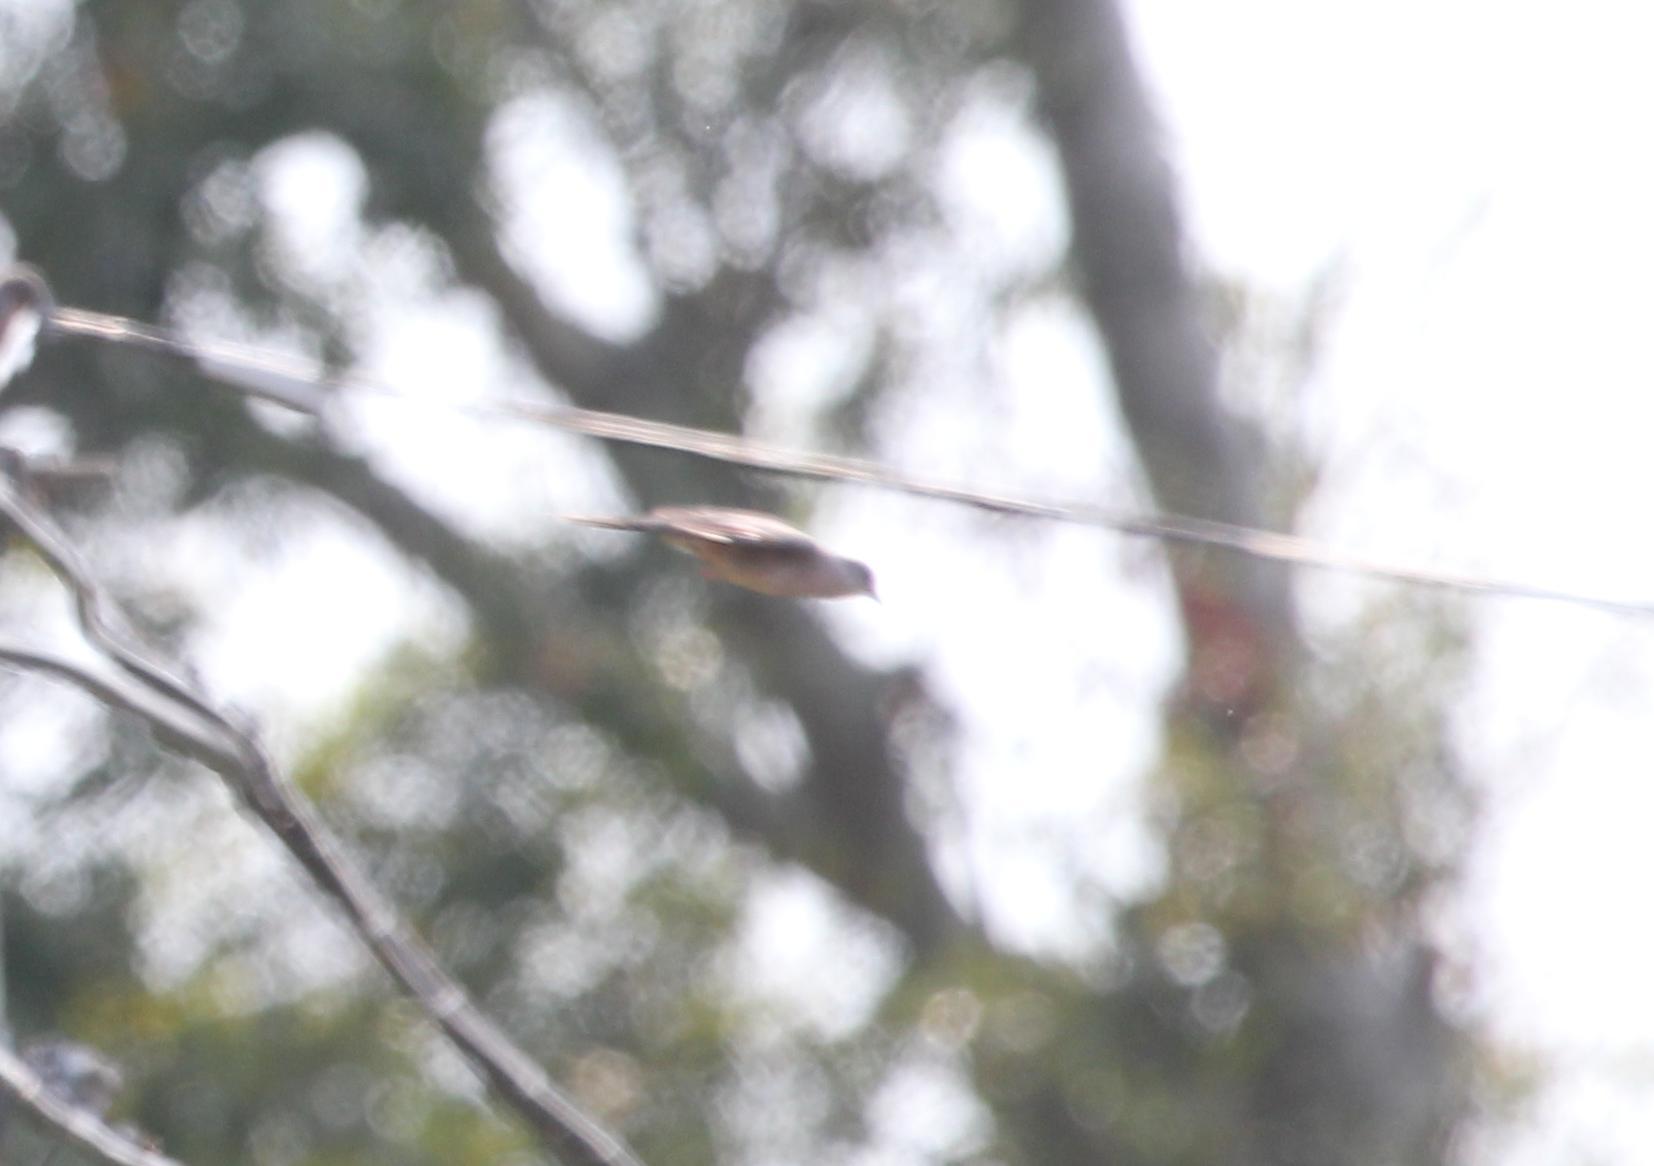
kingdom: Animalia
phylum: Chordata
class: Aves
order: Columbiformes
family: Columbidae
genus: Columbina
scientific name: Columbina inca
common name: Inca dove
